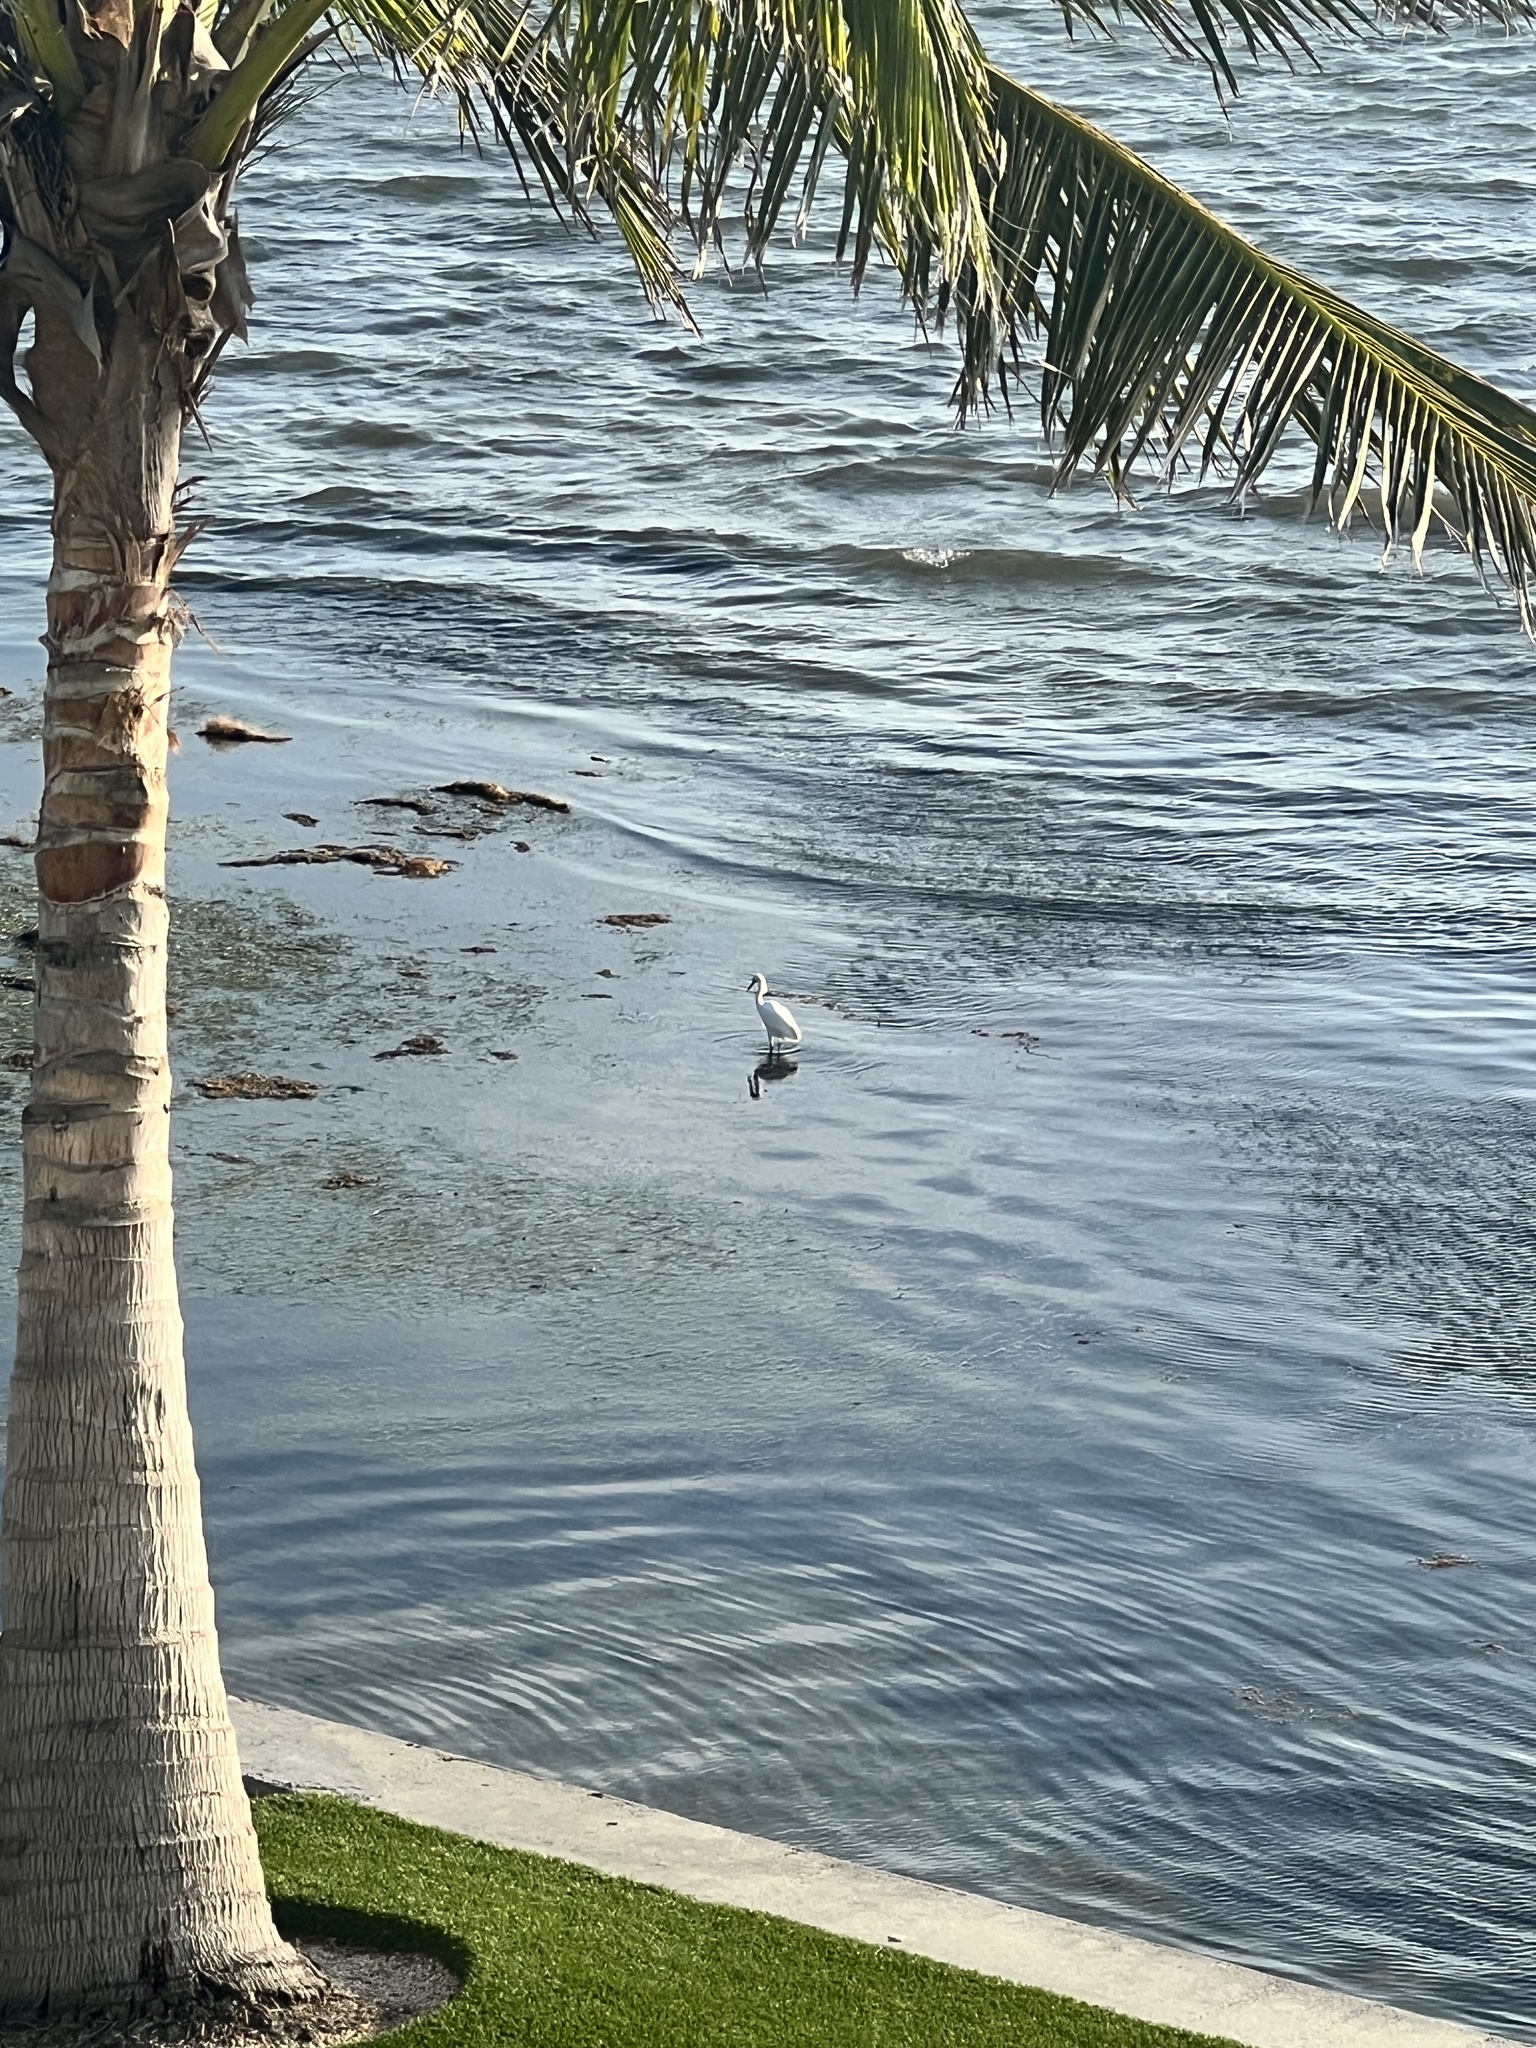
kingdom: Animalia
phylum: Chordata
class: Aves
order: Pelecaniformes
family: Ardeidae
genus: Egretta
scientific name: Egretta thula
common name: Snowy egret
